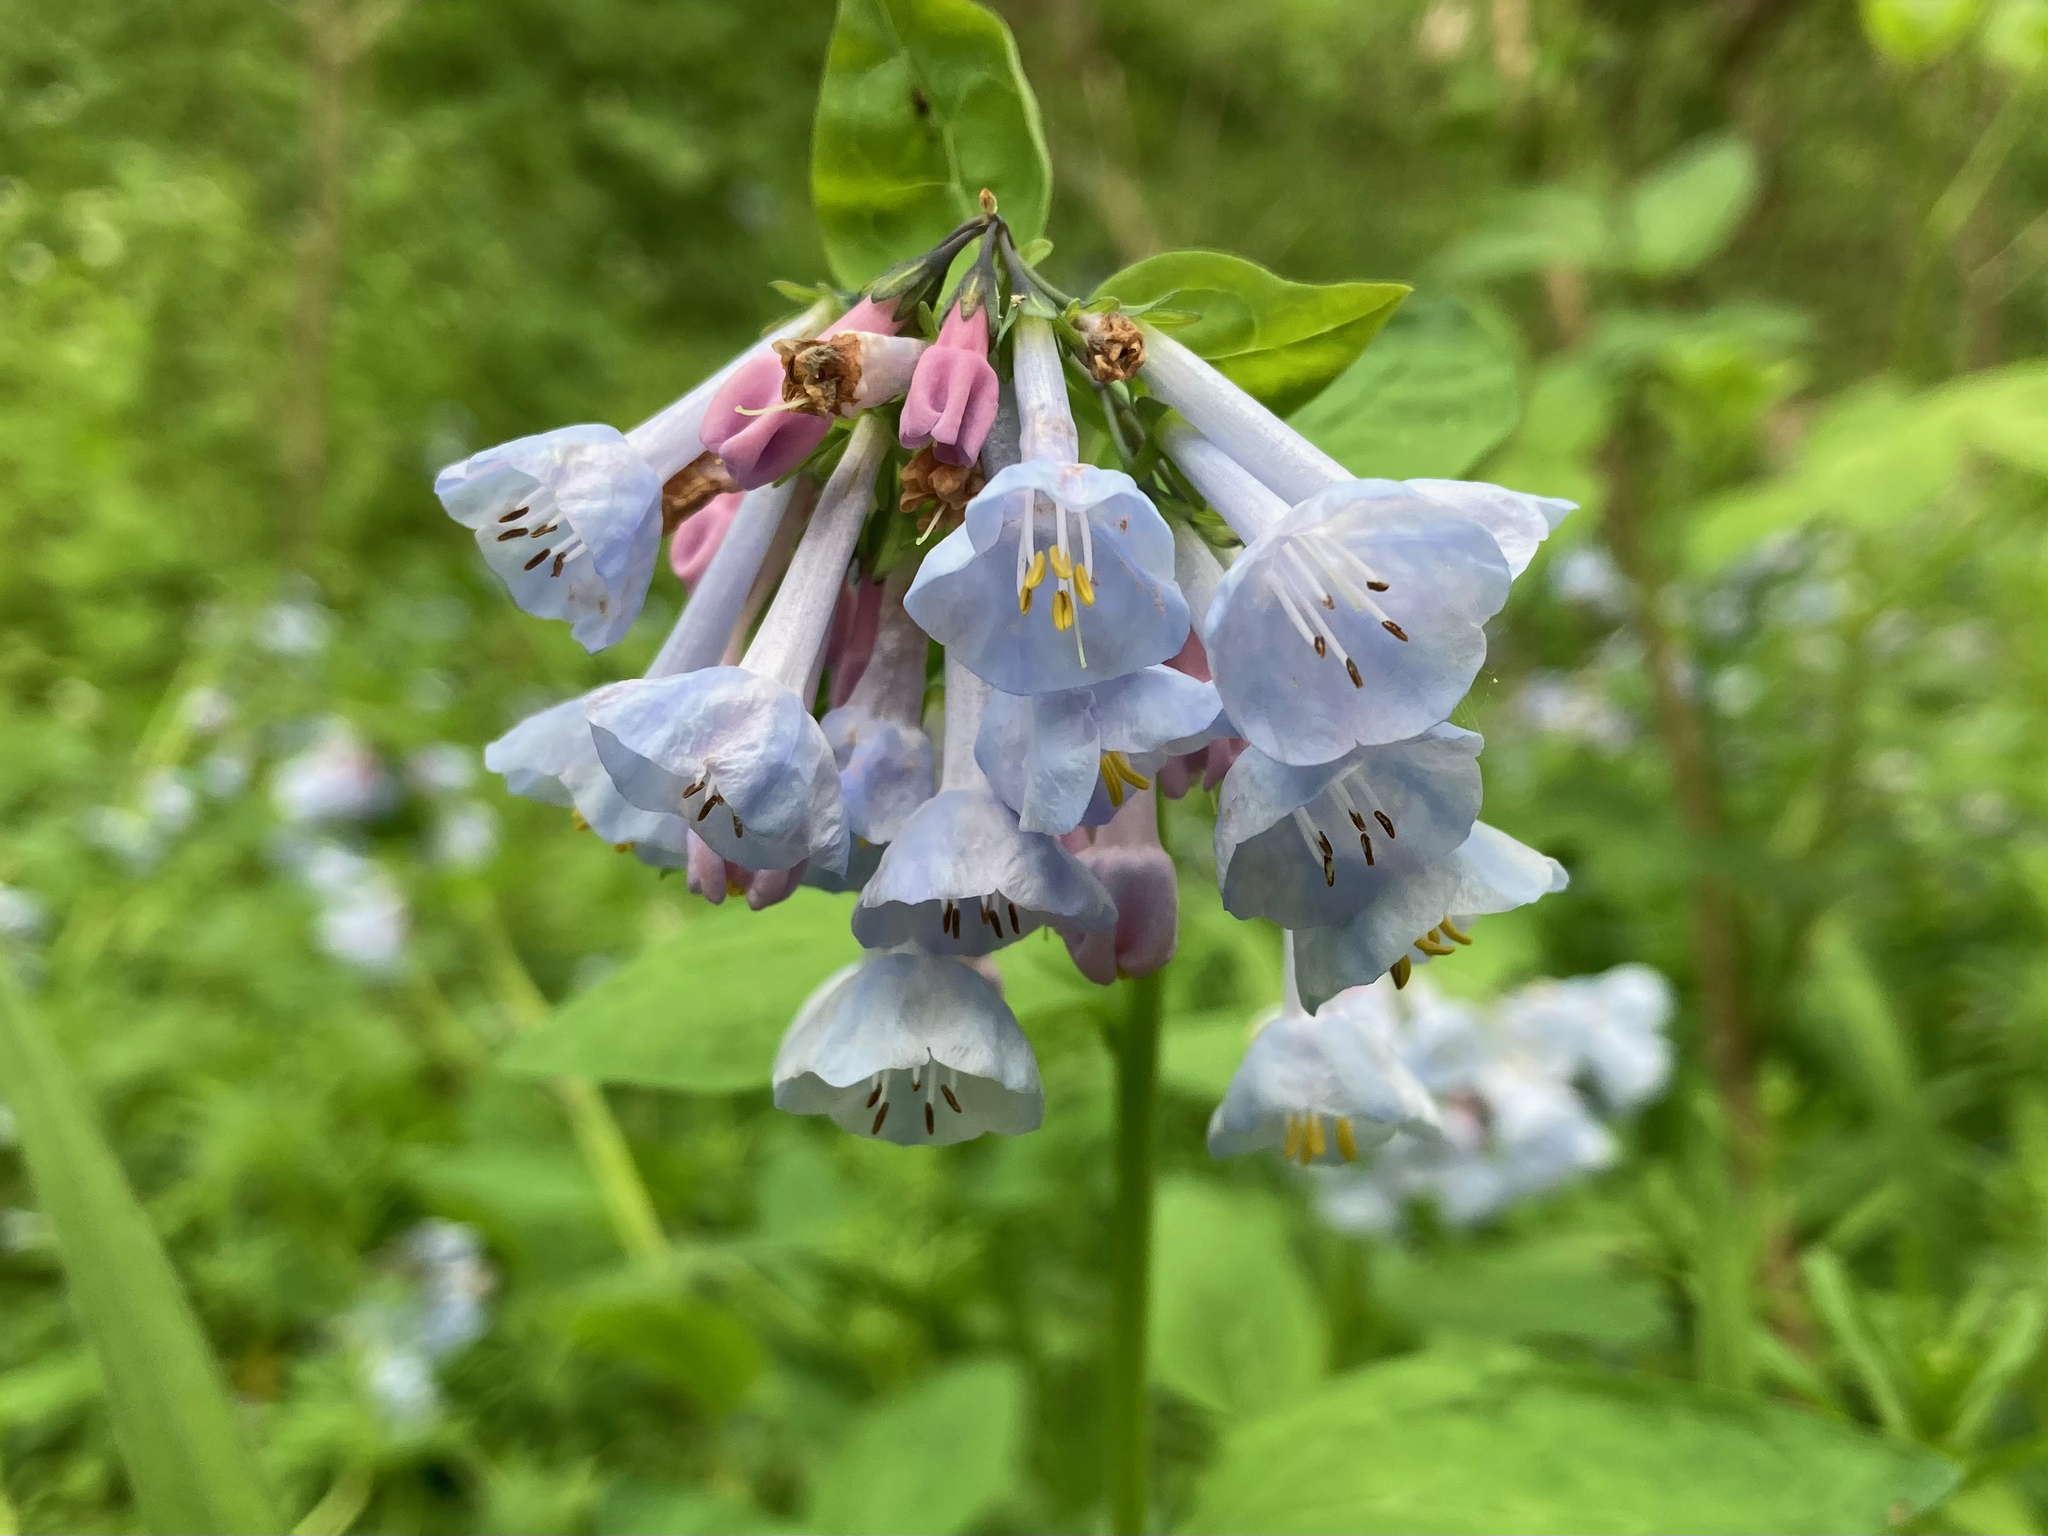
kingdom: Plantae
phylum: Tracheophyta
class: Magnoliopsida
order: Boraginales
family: Boraginaceae
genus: Mertensia
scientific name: Mertensia virginica
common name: Virginia bluebells
